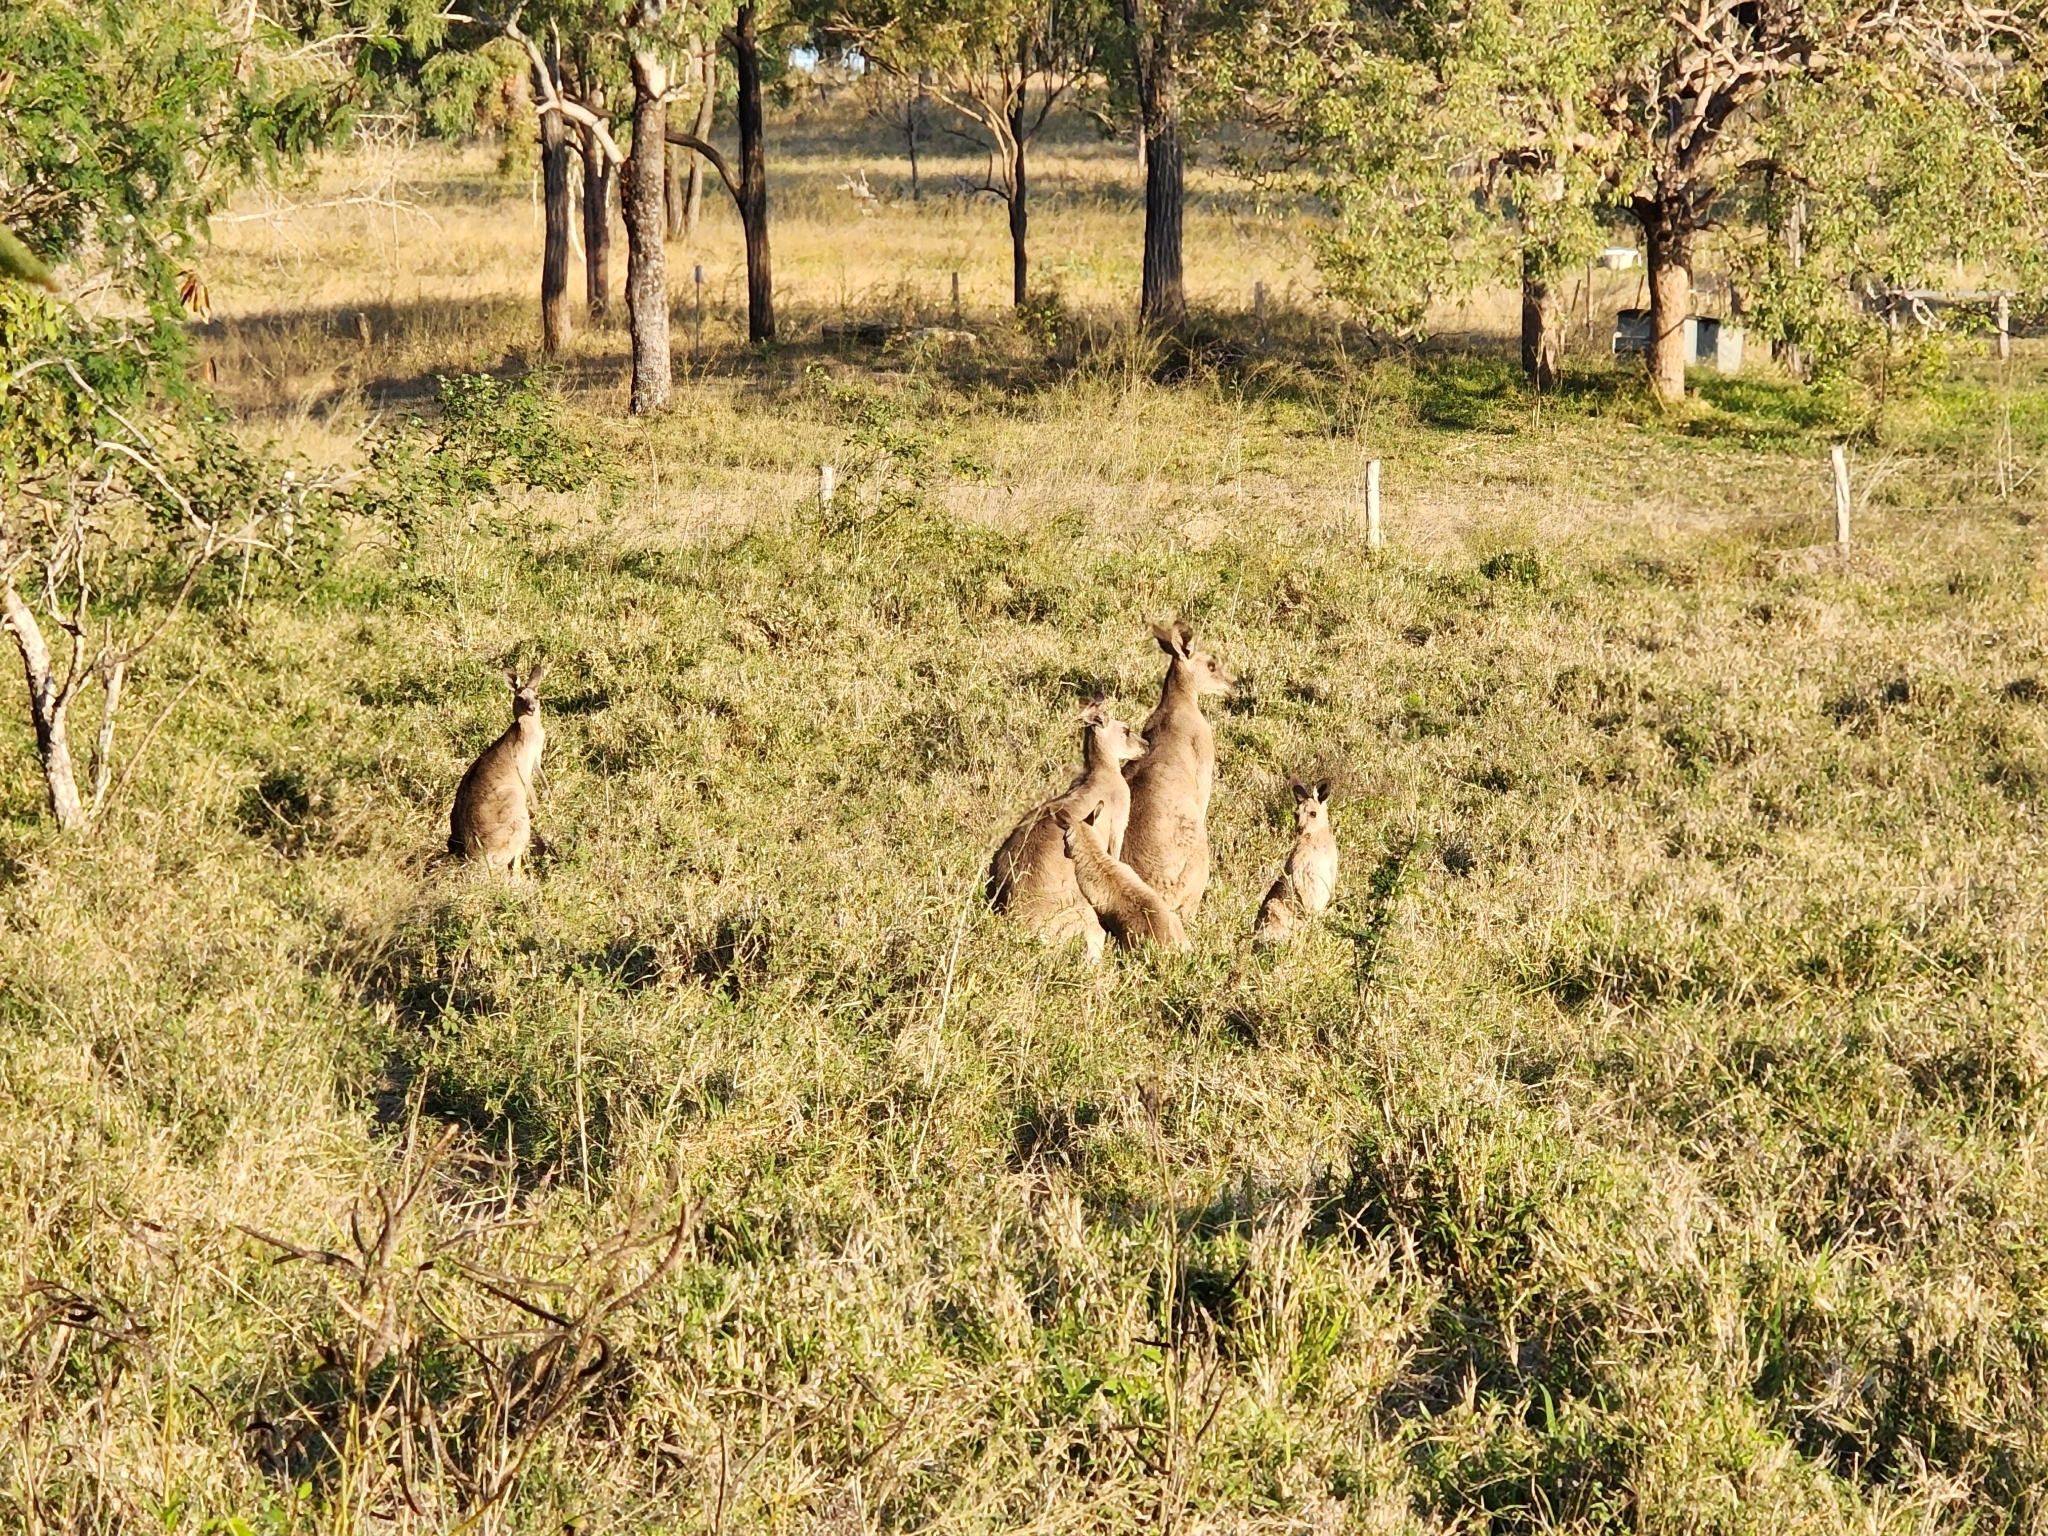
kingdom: Animalia
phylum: Chordata
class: Mammalia
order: Diprotodontia
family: Macropodidae
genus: Macropus
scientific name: Macropus giganteus
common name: Eastern grey kangaroo
